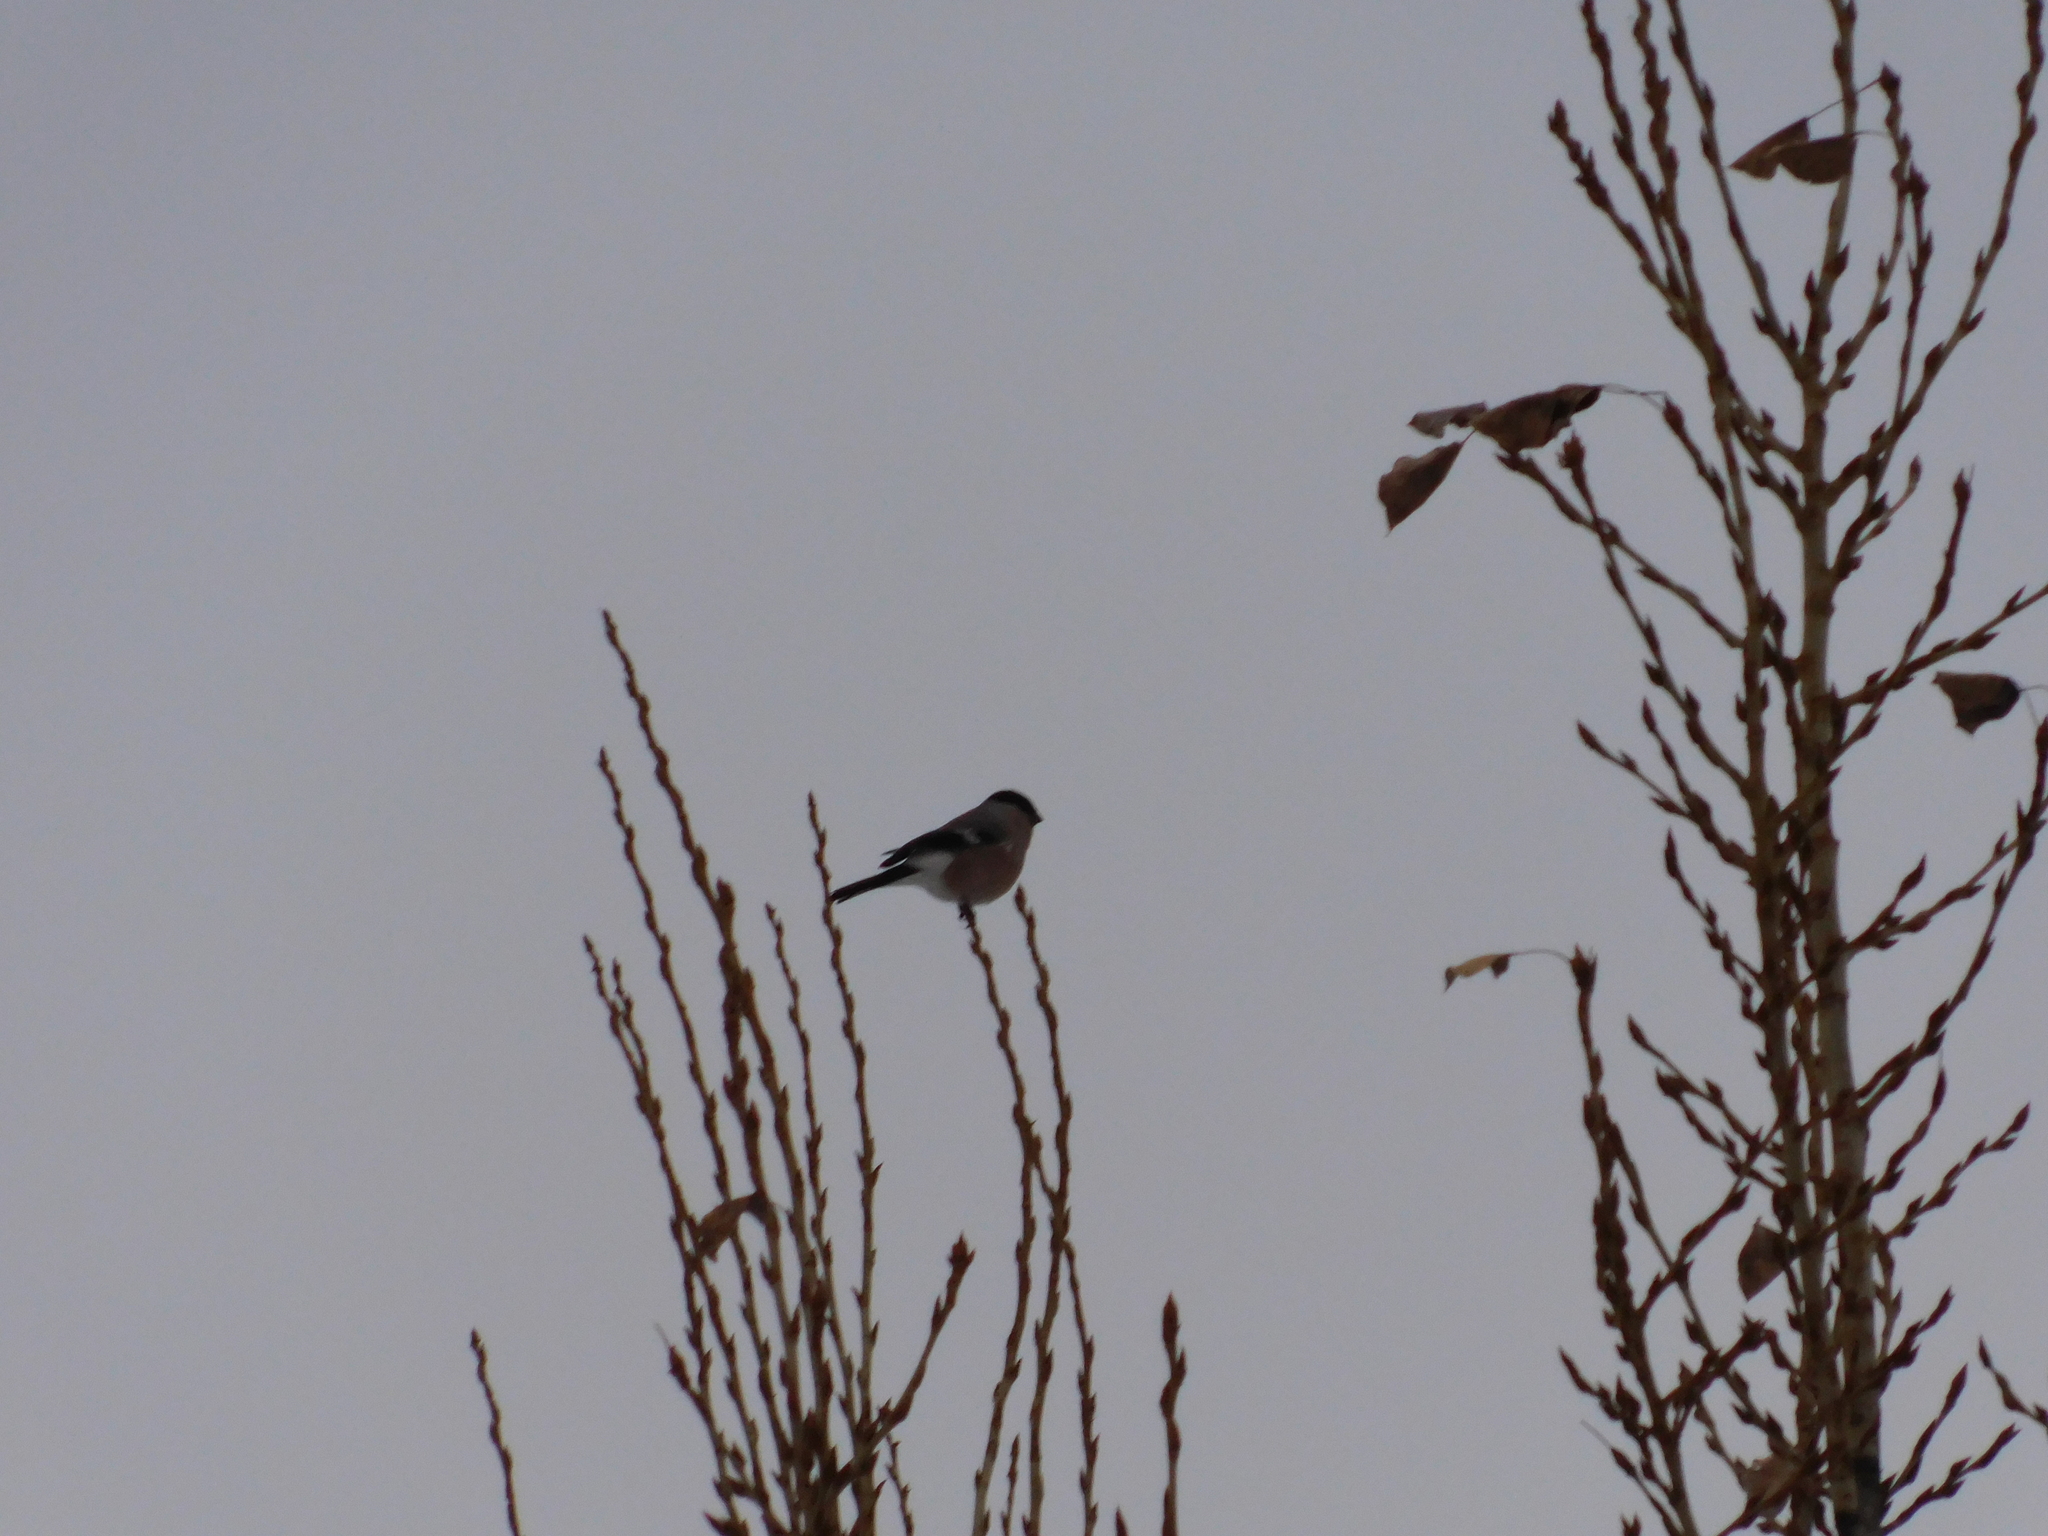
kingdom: Animalia
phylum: Chordata
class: Aves
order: Passeriformes
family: Fringillidae
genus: Pyrrhula
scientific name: Pyrrhula pyrrhula
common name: Eurasian bullfinch
